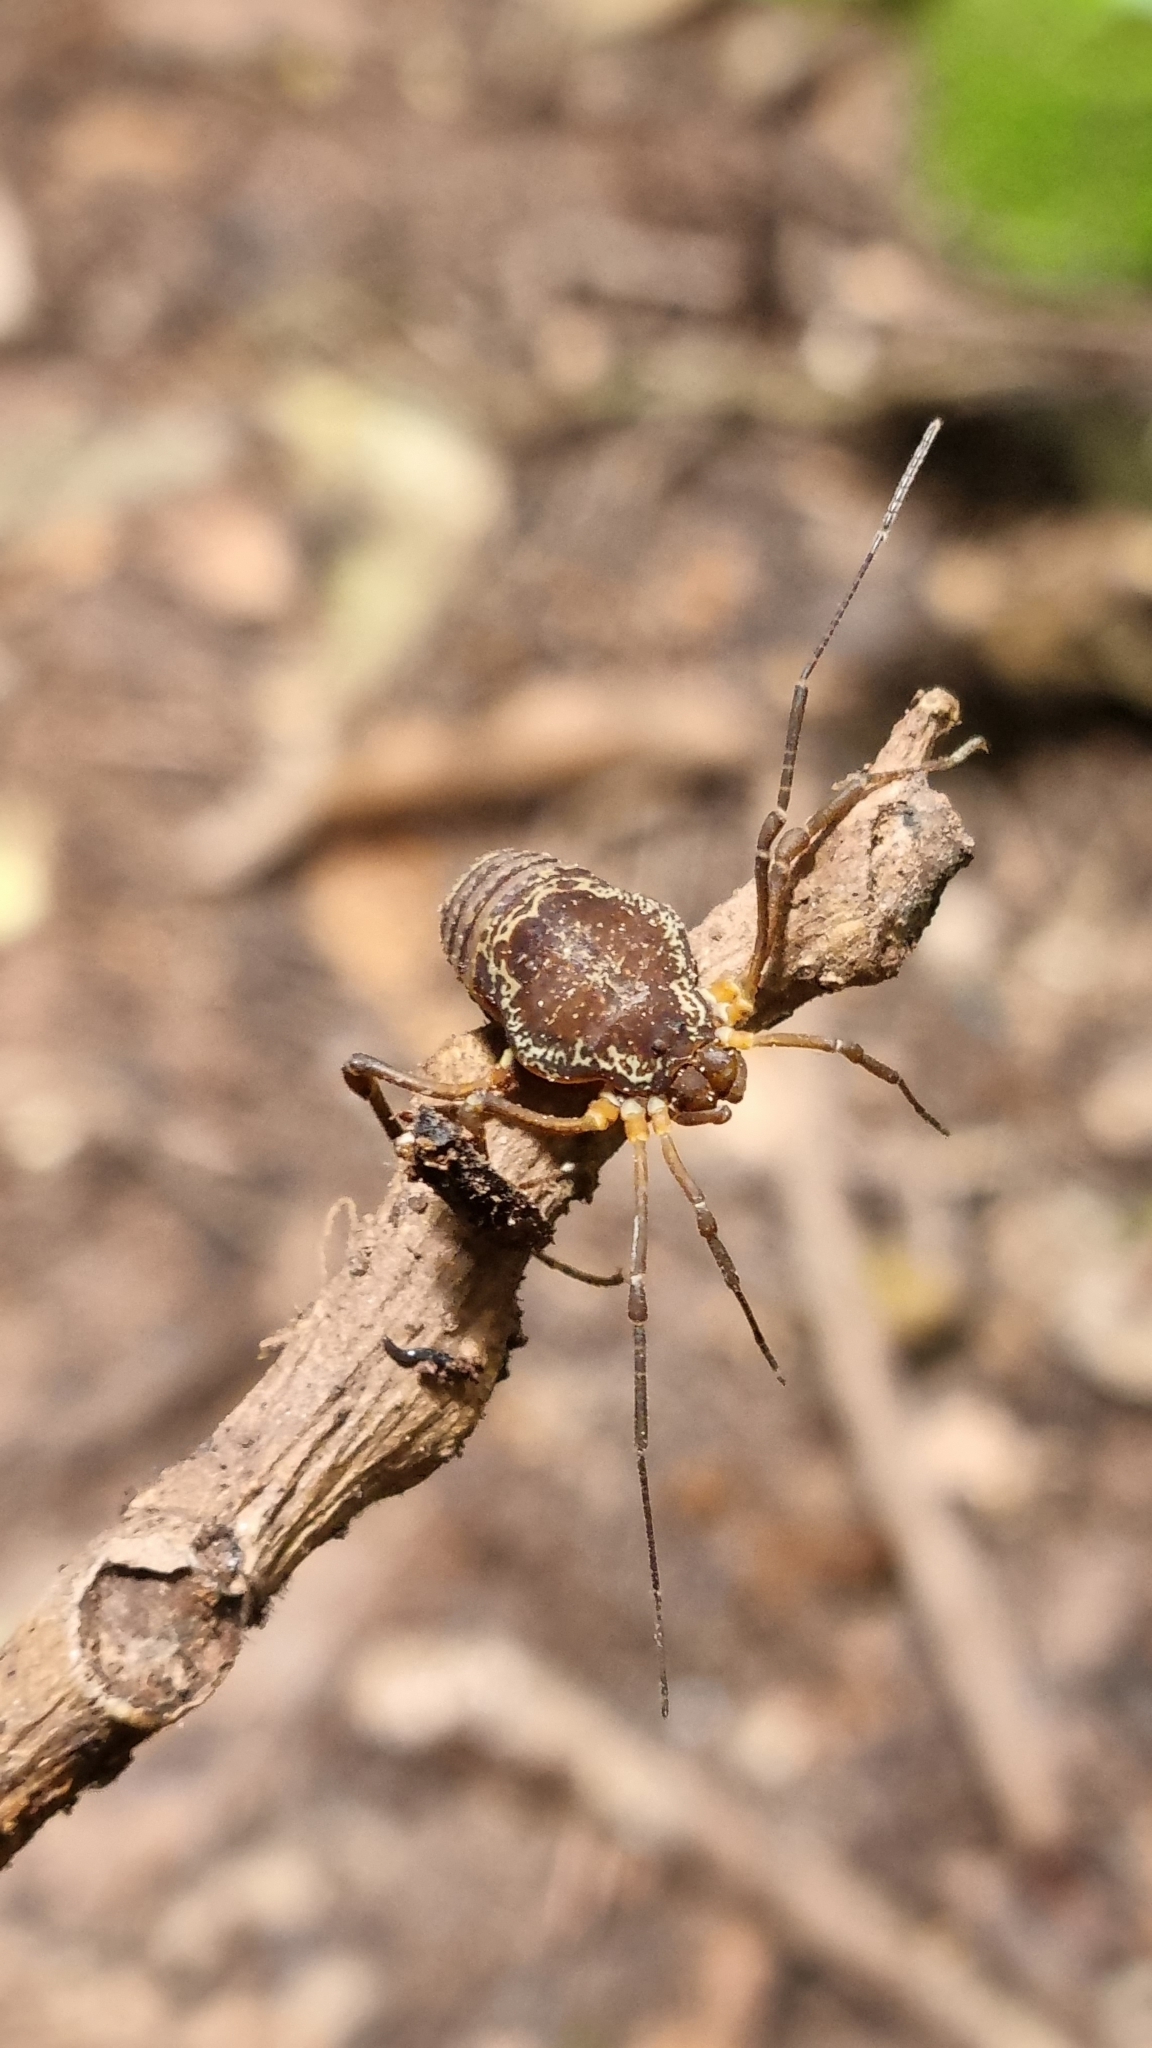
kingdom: Animalia
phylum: Arthropoda
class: Arachnida
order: Opiliones
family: Cosmetidae
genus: Erginulus
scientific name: Erginulus subserialis
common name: Harvestmen
